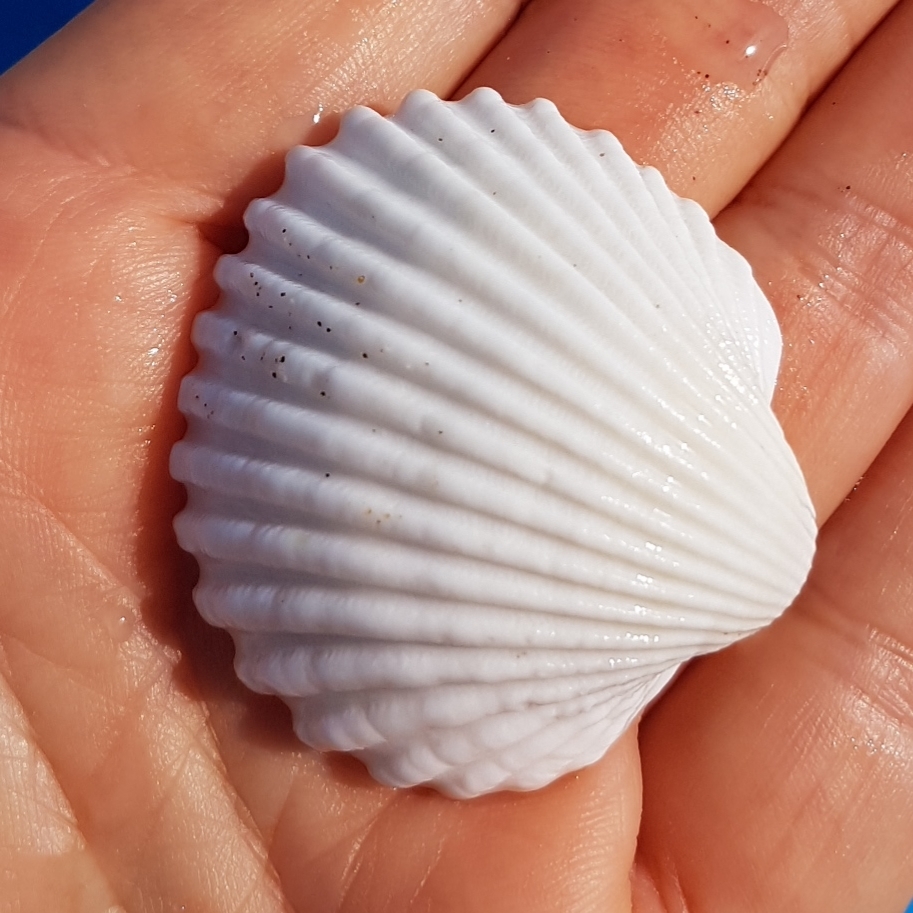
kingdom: Animalia
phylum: Mollusca
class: Bivalvia
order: Cardiida
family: Cardiidae
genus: Acanthocardia
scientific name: Acanthocardia tuberculata
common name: Rough cockle
